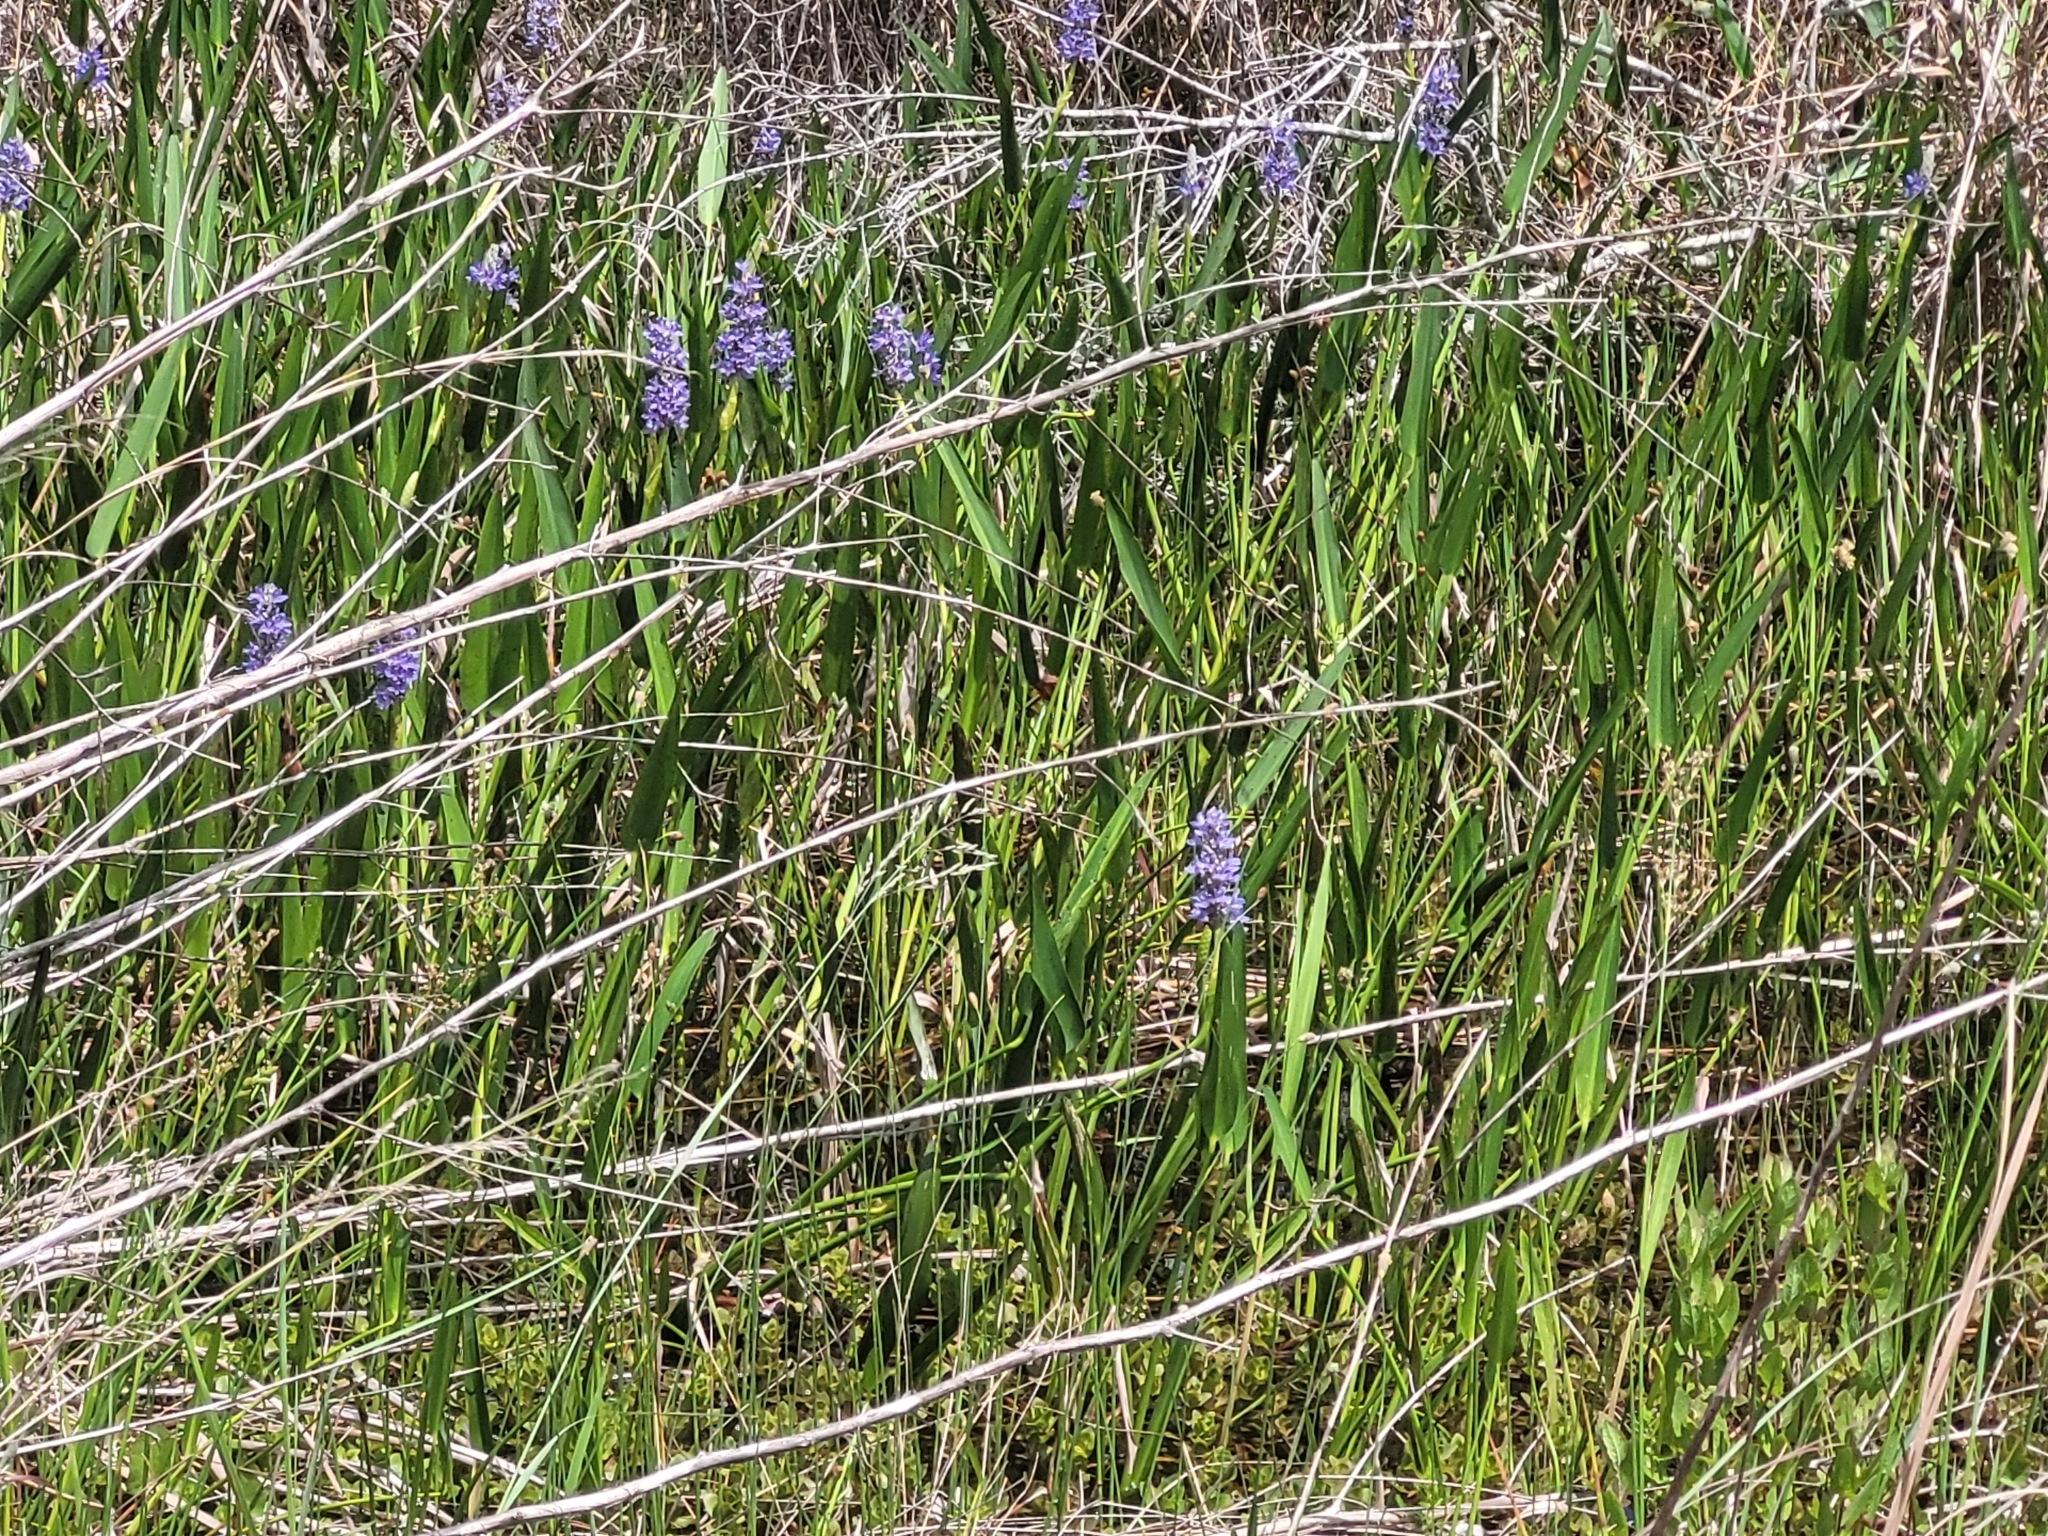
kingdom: Plantae
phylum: Tracheophyta
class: Liliopsida
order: Commelinales
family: Pontederiaceae
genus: Pontederia
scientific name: Pontederia cordata
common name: Pickerelweed
